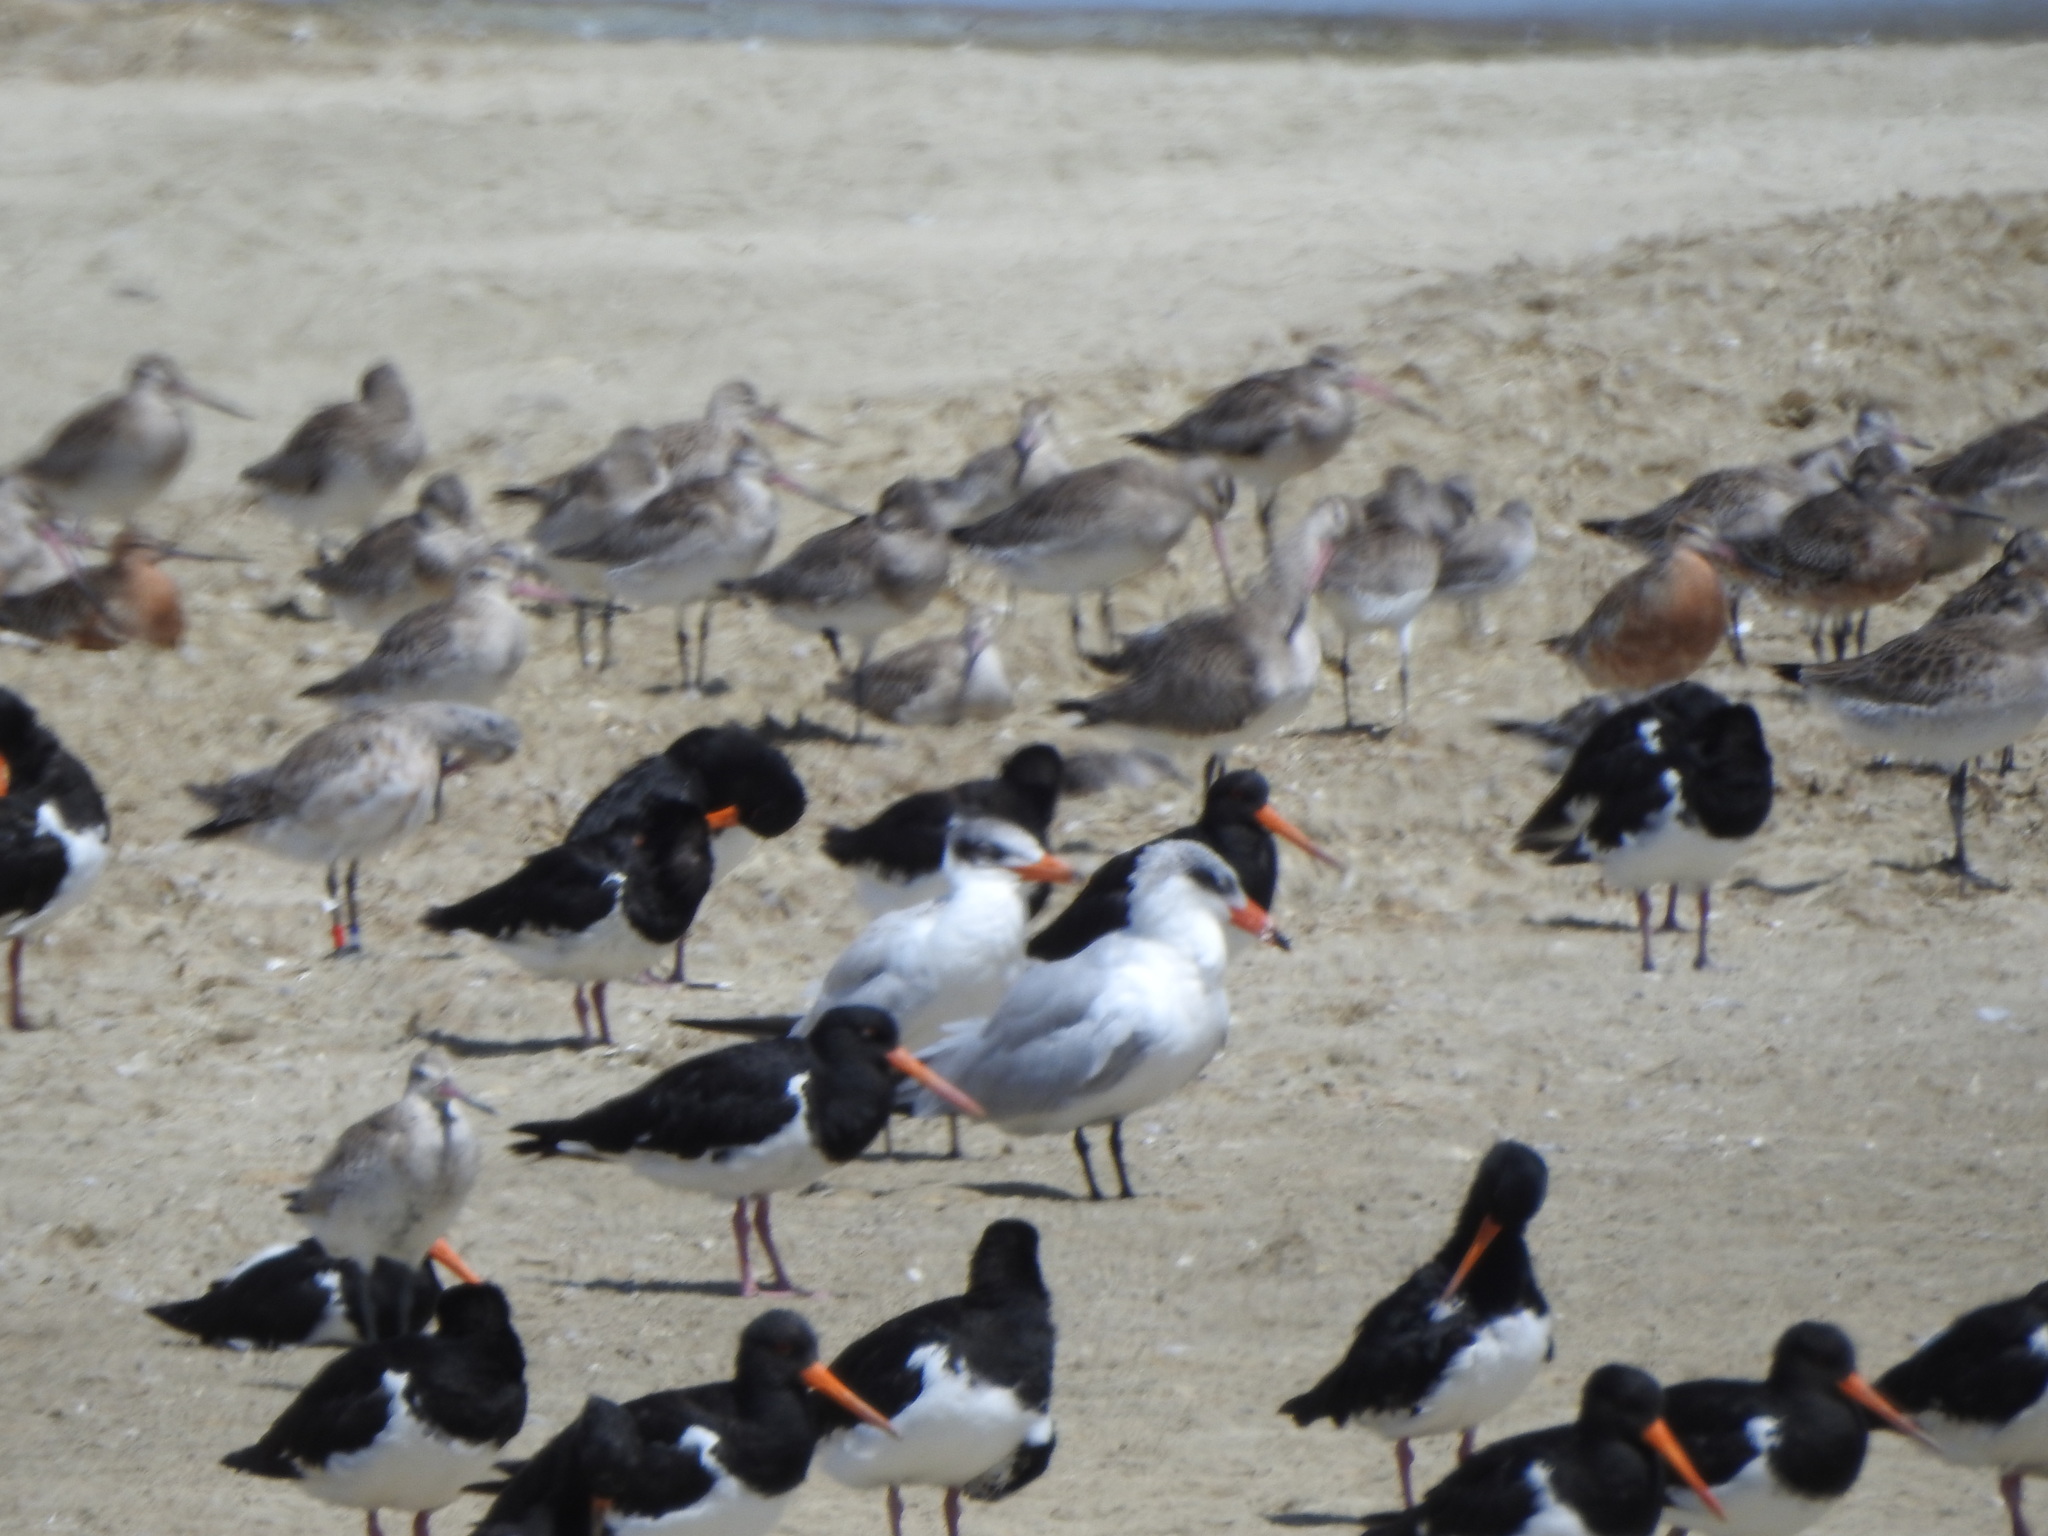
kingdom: Animalia
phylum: Chordata
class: Aves
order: Charadriiformes
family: Laridae
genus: Hydroprogne
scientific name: Hydroprogne caspia
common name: Caspian tern
